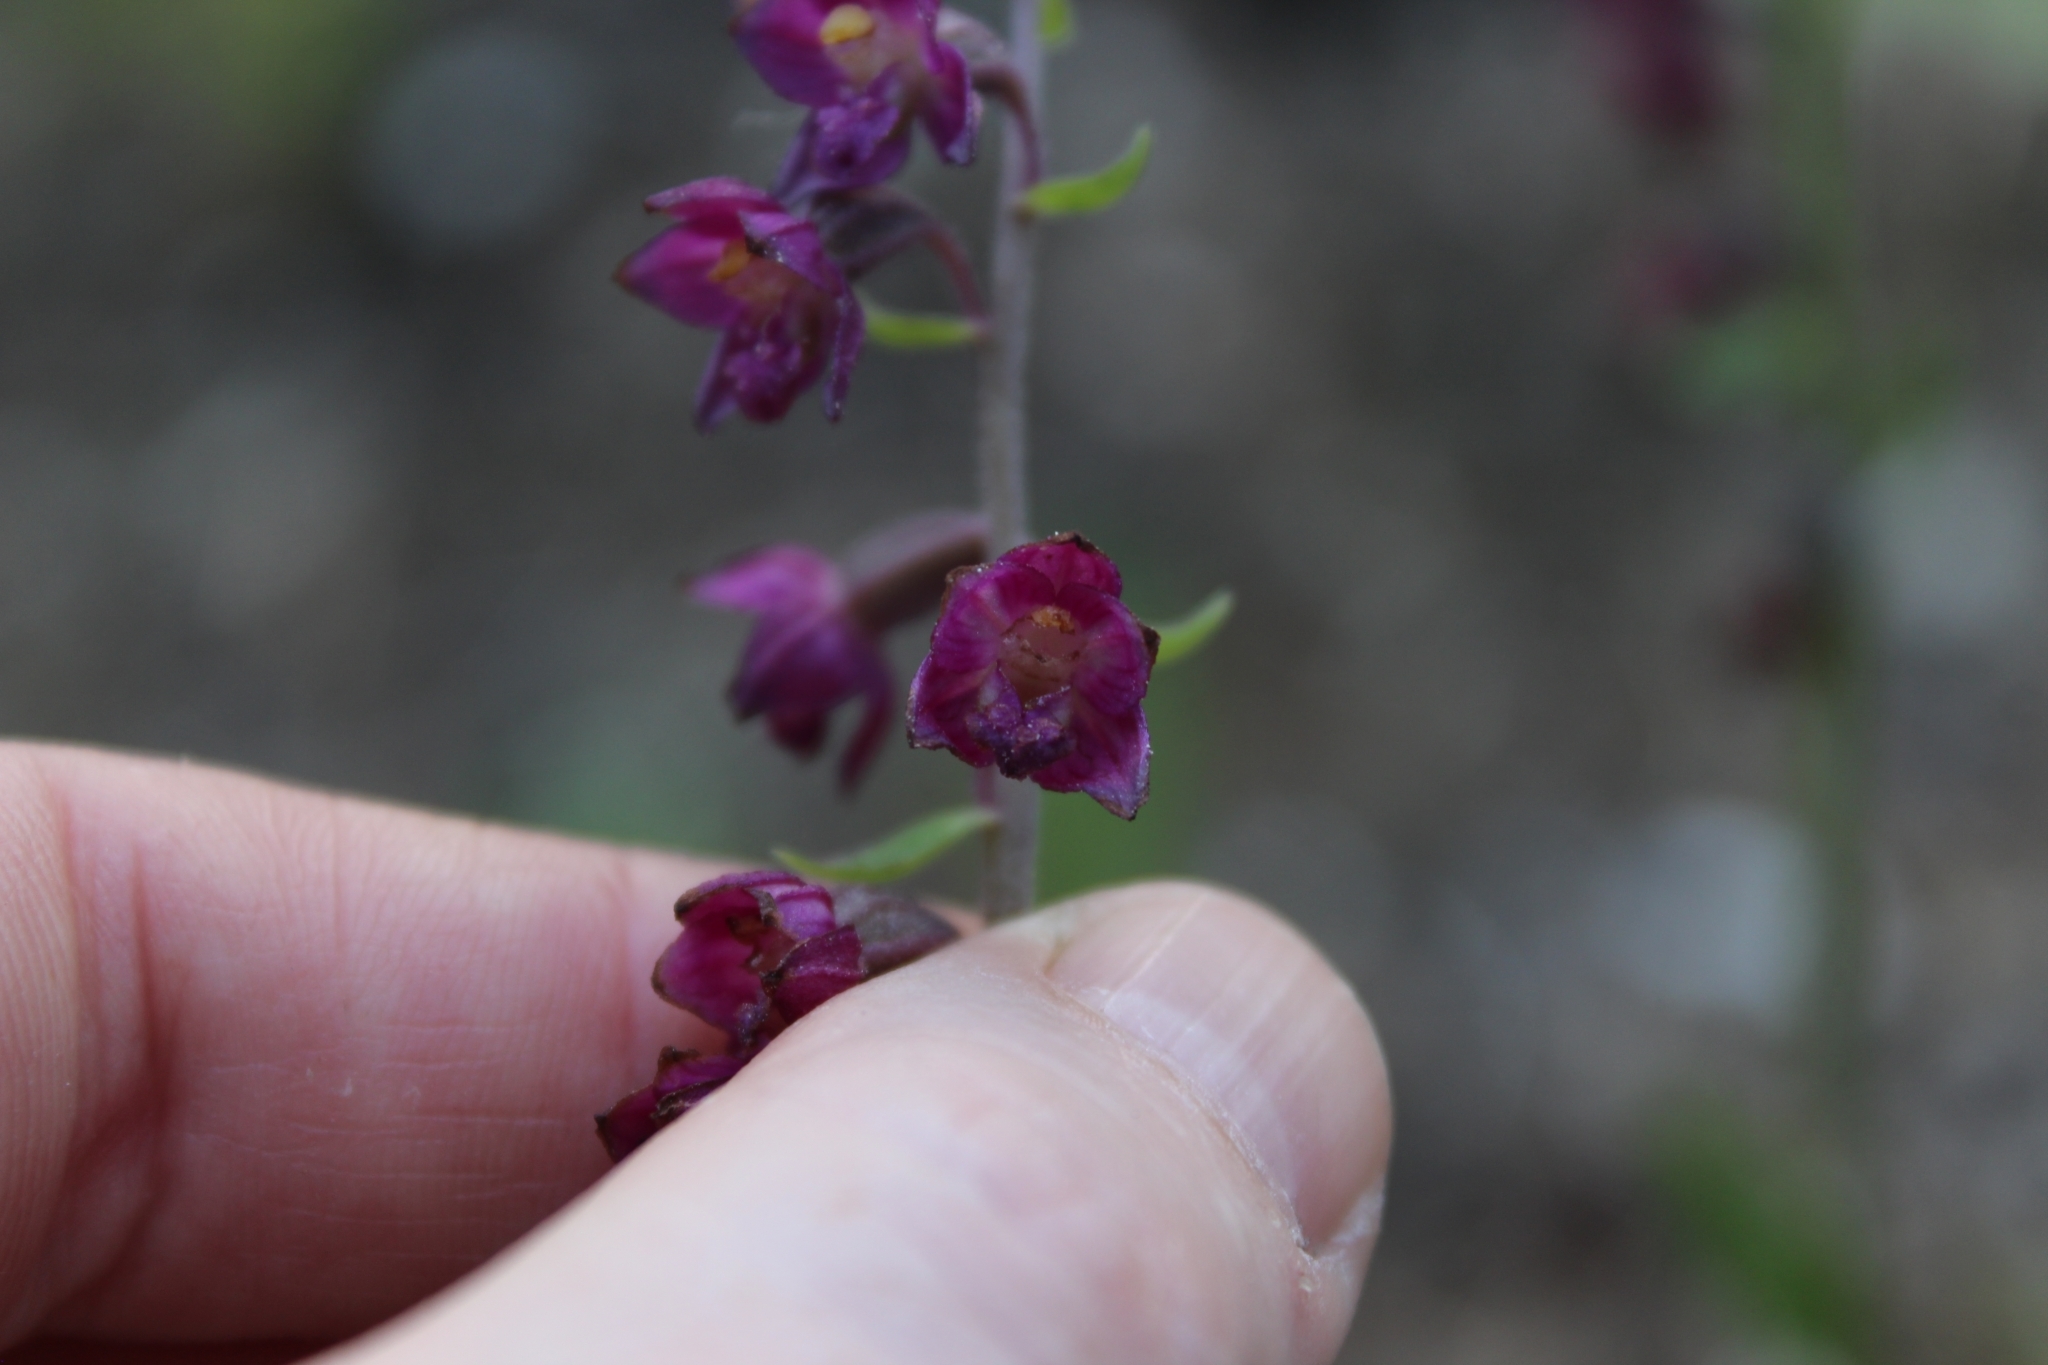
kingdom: Plantae
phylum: Tracheophyta
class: Liliopsida
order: Asparagales
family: Orchidaceae
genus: Epipactis
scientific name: Epipactis atrorubens
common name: Dark-red helleborine
